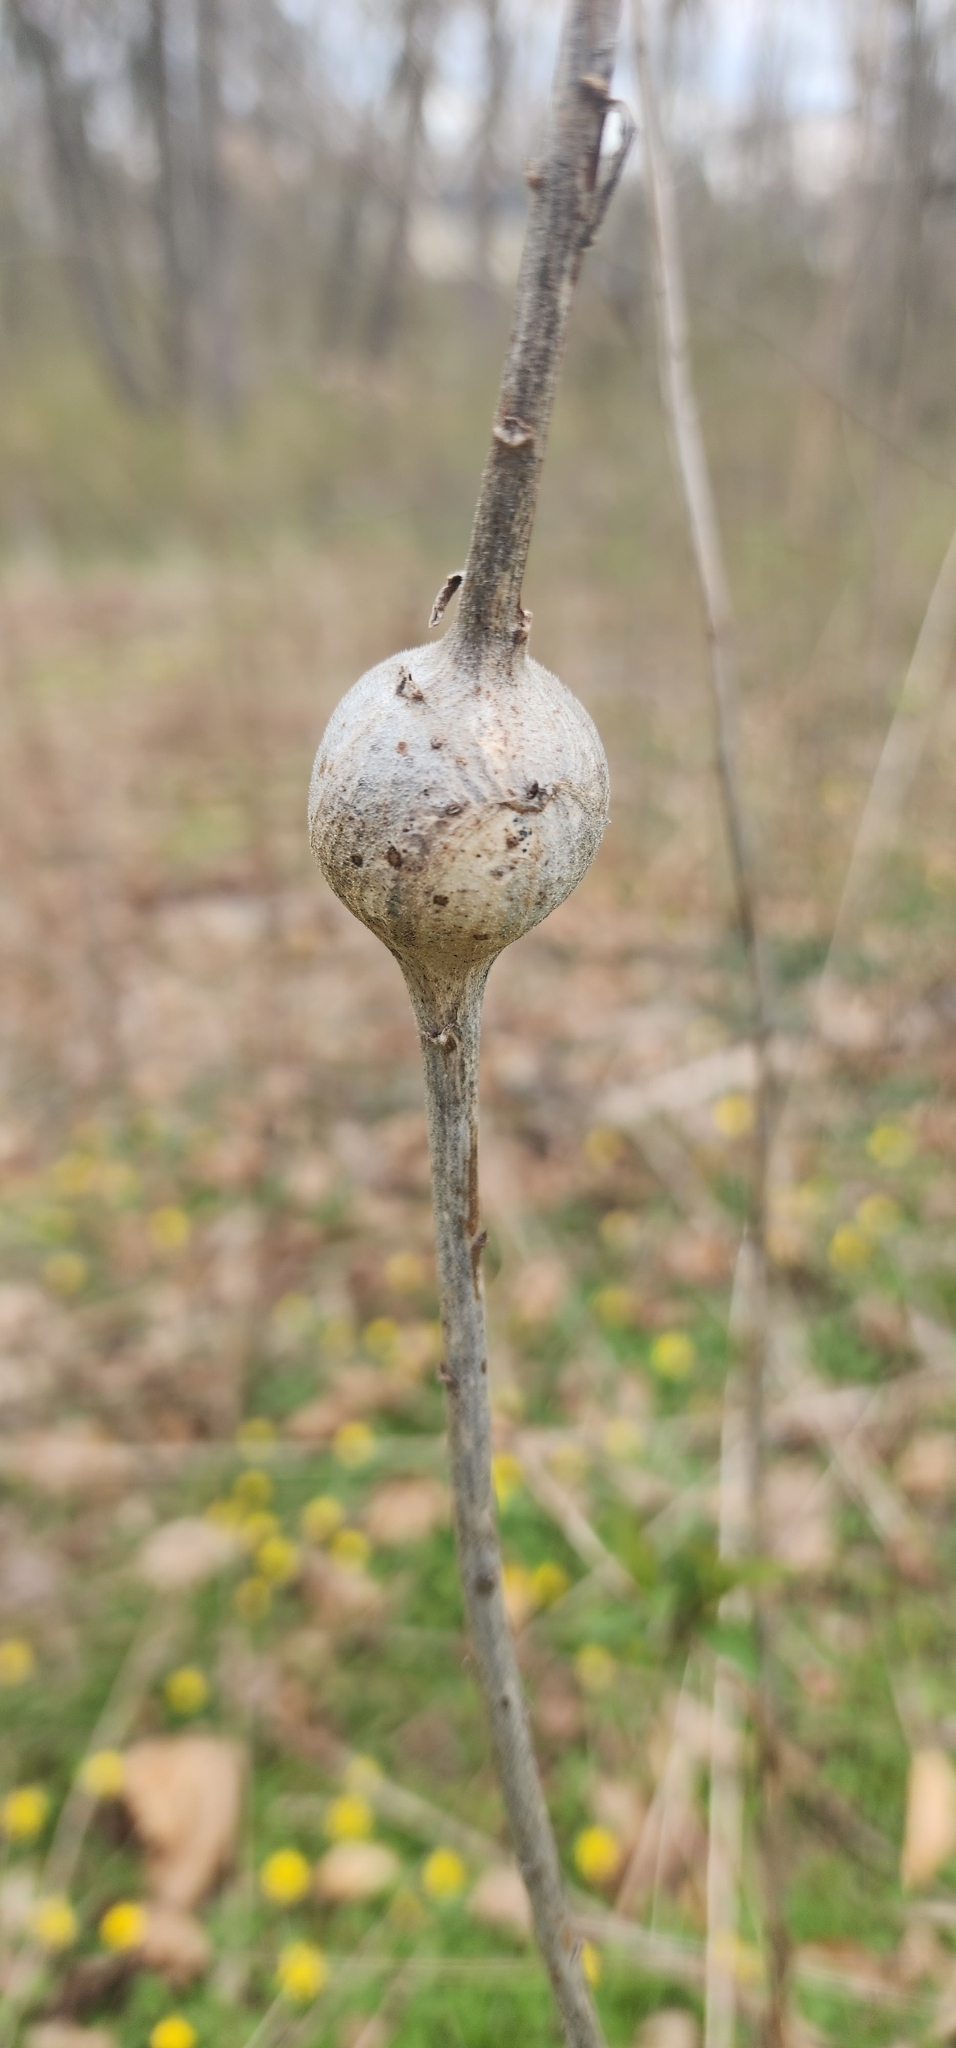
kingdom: Animalia
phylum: Arthropoda
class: Insecta
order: Diptera
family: Tephritidae
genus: Eurosta
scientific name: Eurosta solidaginis
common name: Goldenrod gall fly
